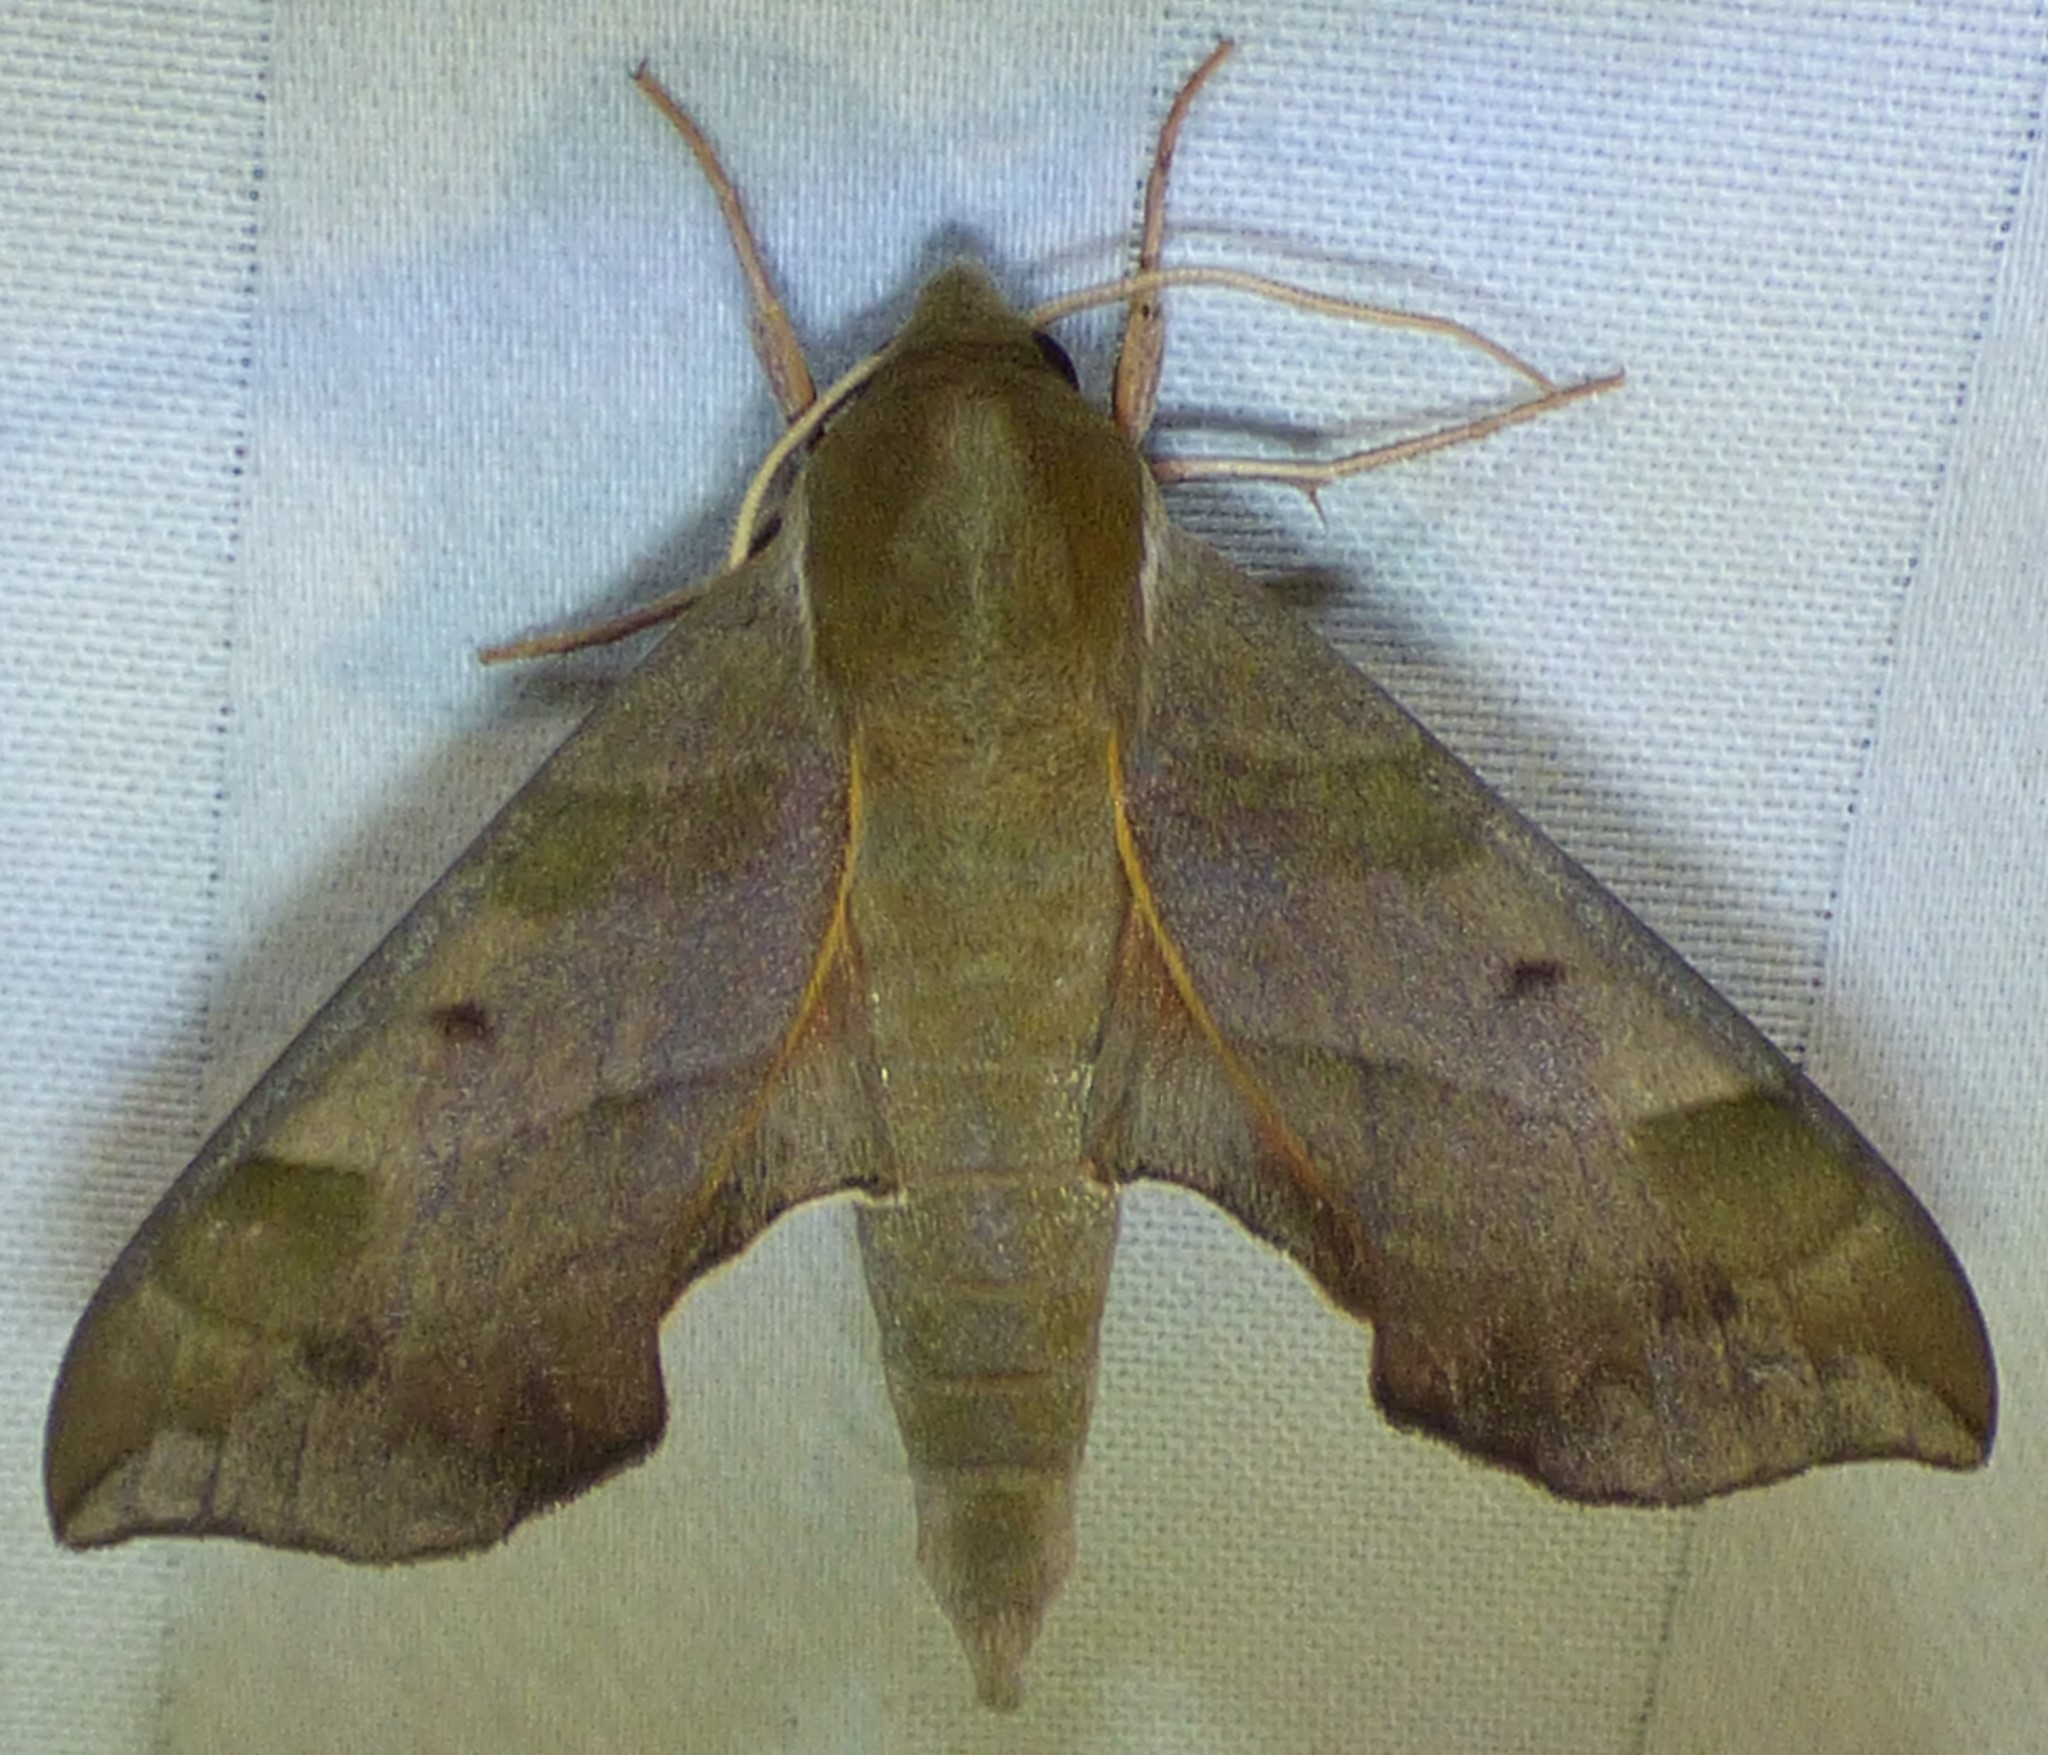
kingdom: Animalia
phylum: Arthropoda
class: Insecta
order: Lepidoptera
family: Sphingidae
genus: Darapsa
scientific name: Darapsa myron
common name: Hog sphinx
